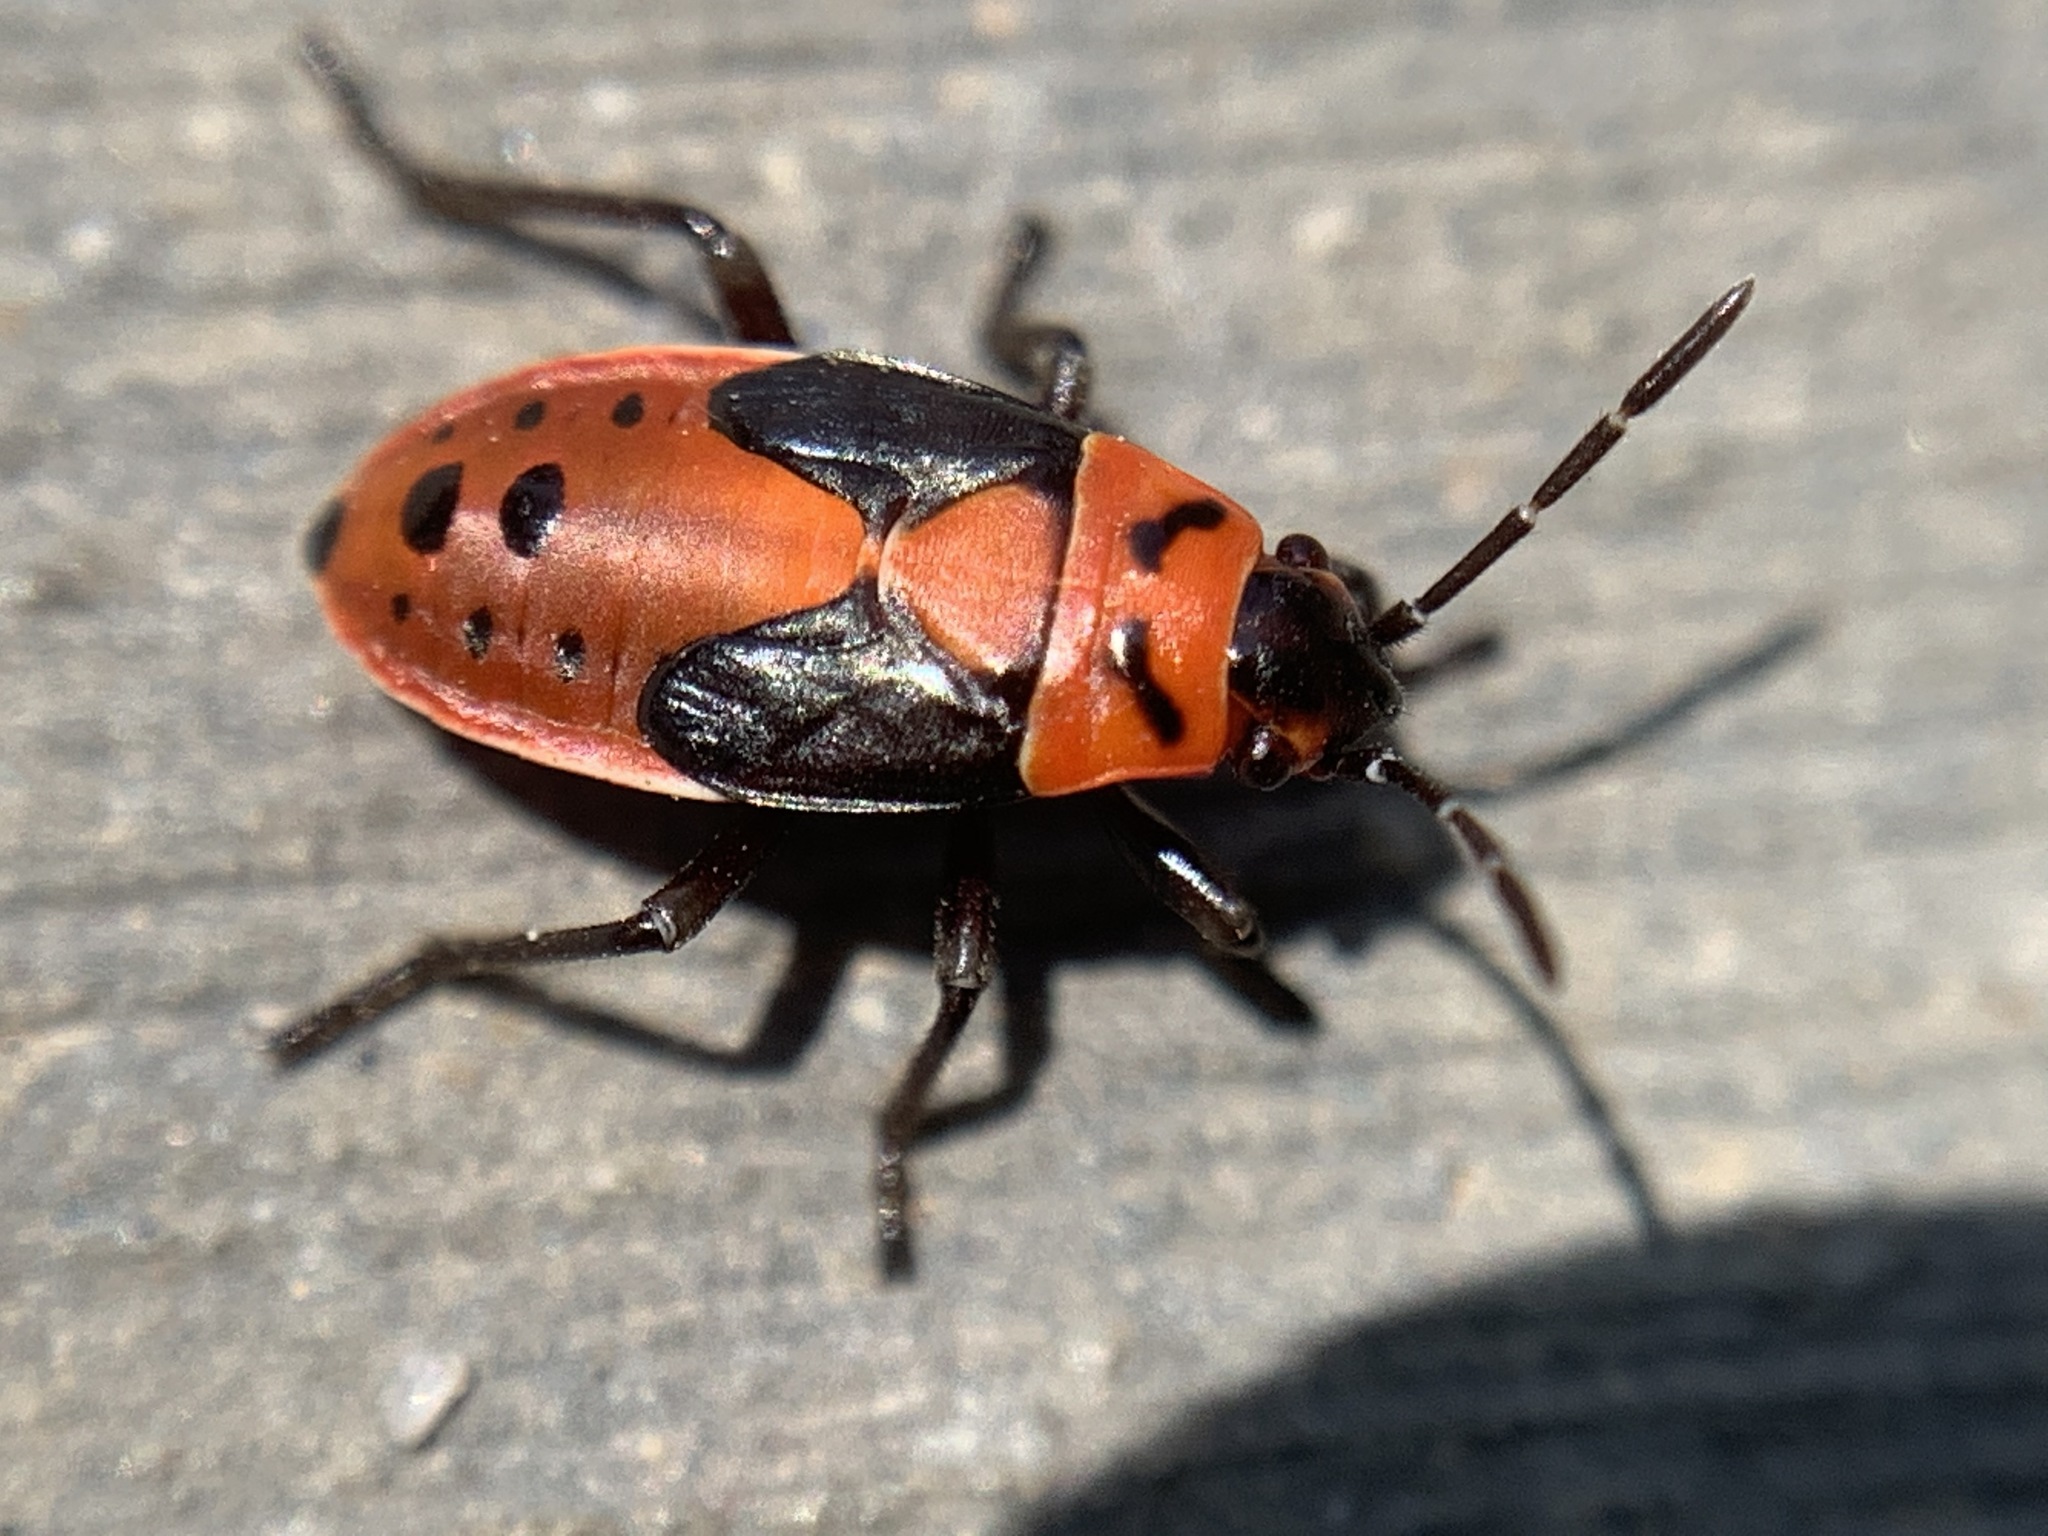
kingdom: Animalia
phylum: Arthropoda
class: Insecta
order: Hemiptera
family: Lygaeidae
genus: Lygaeus
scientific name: Lygaeus
